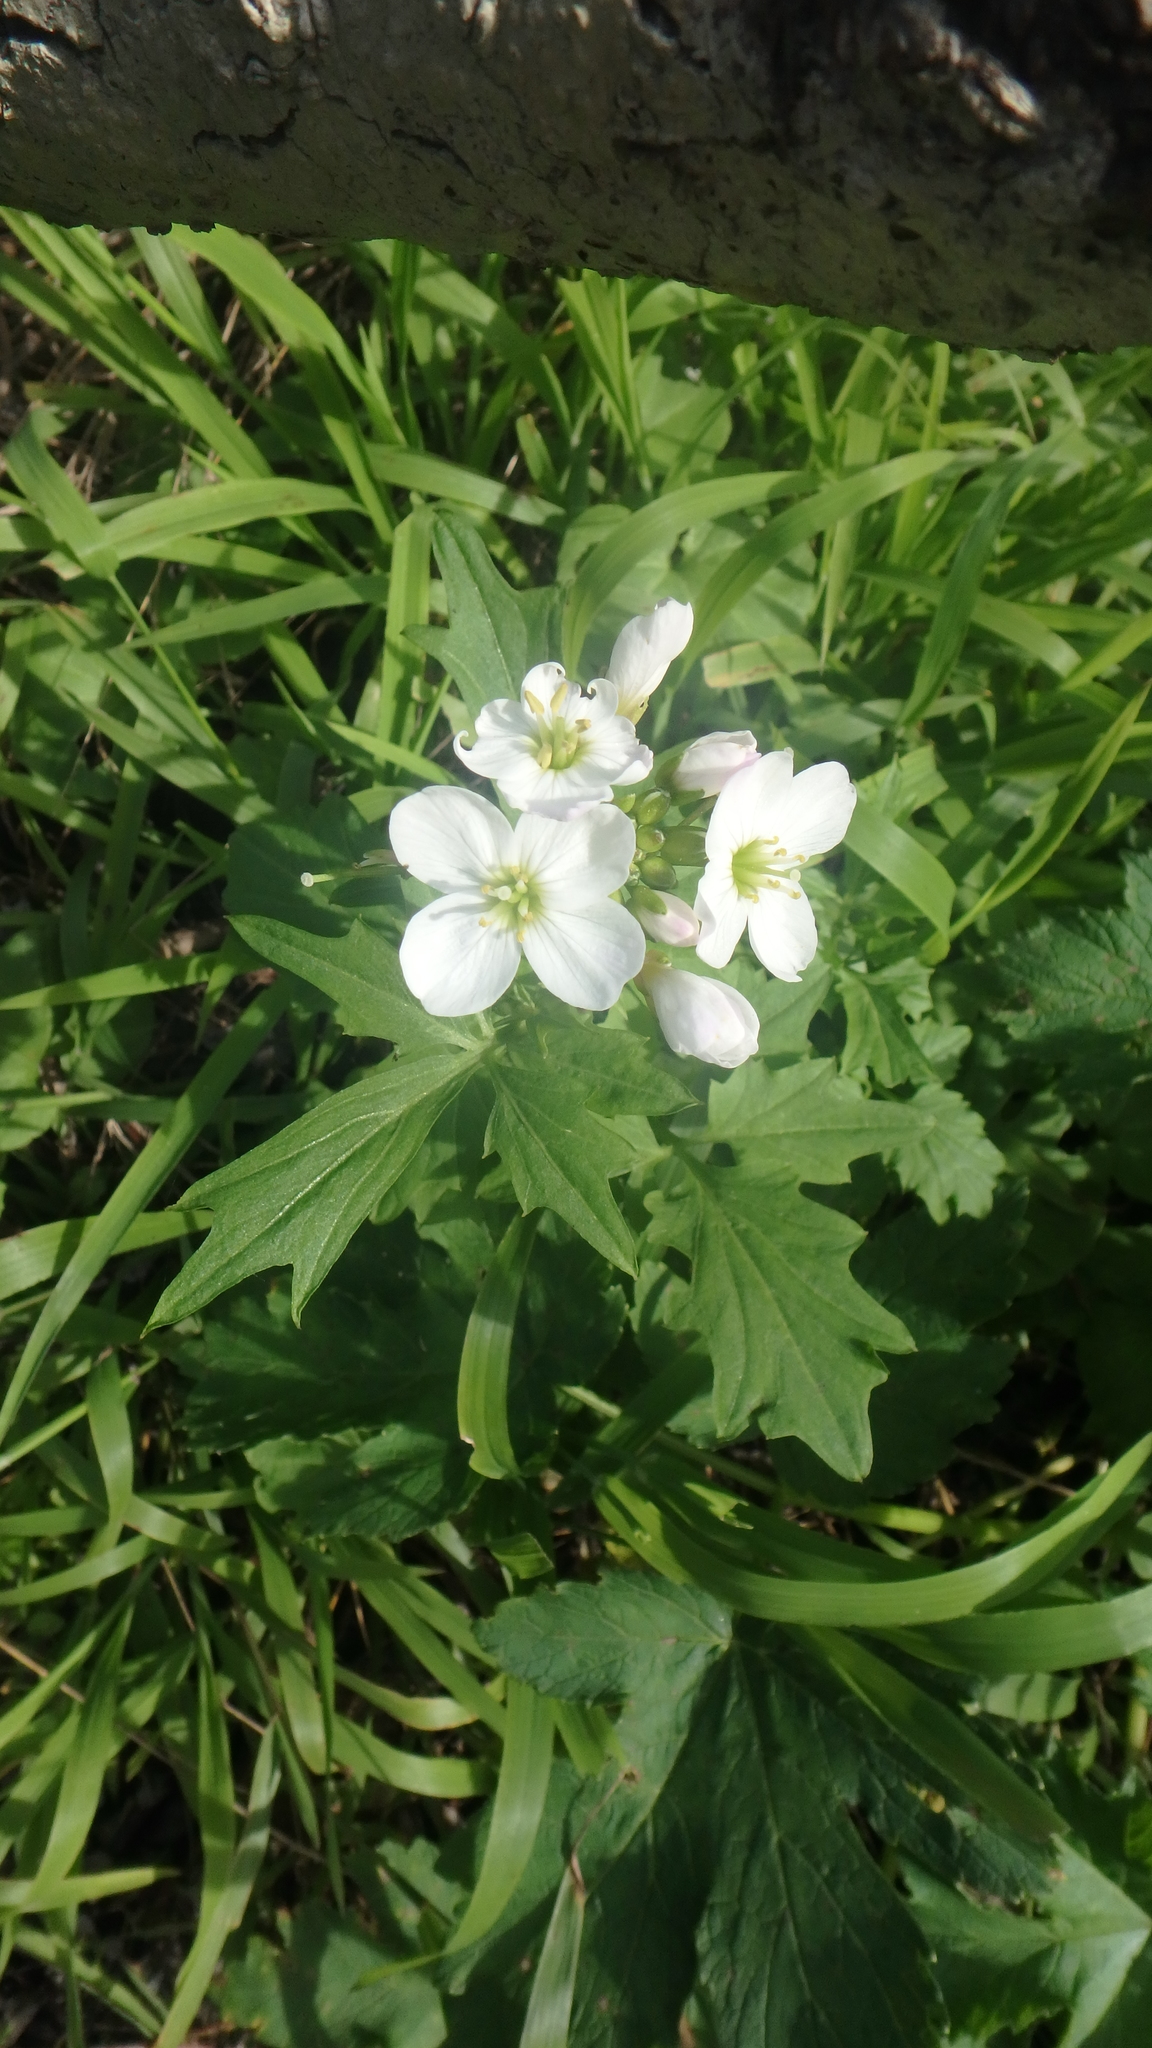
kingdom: Plantae
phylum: Tracheophyta
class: Magnoliopsida
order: Brassicales
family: Brassicaceae
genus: Cardamine
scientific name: Cardamine californica
